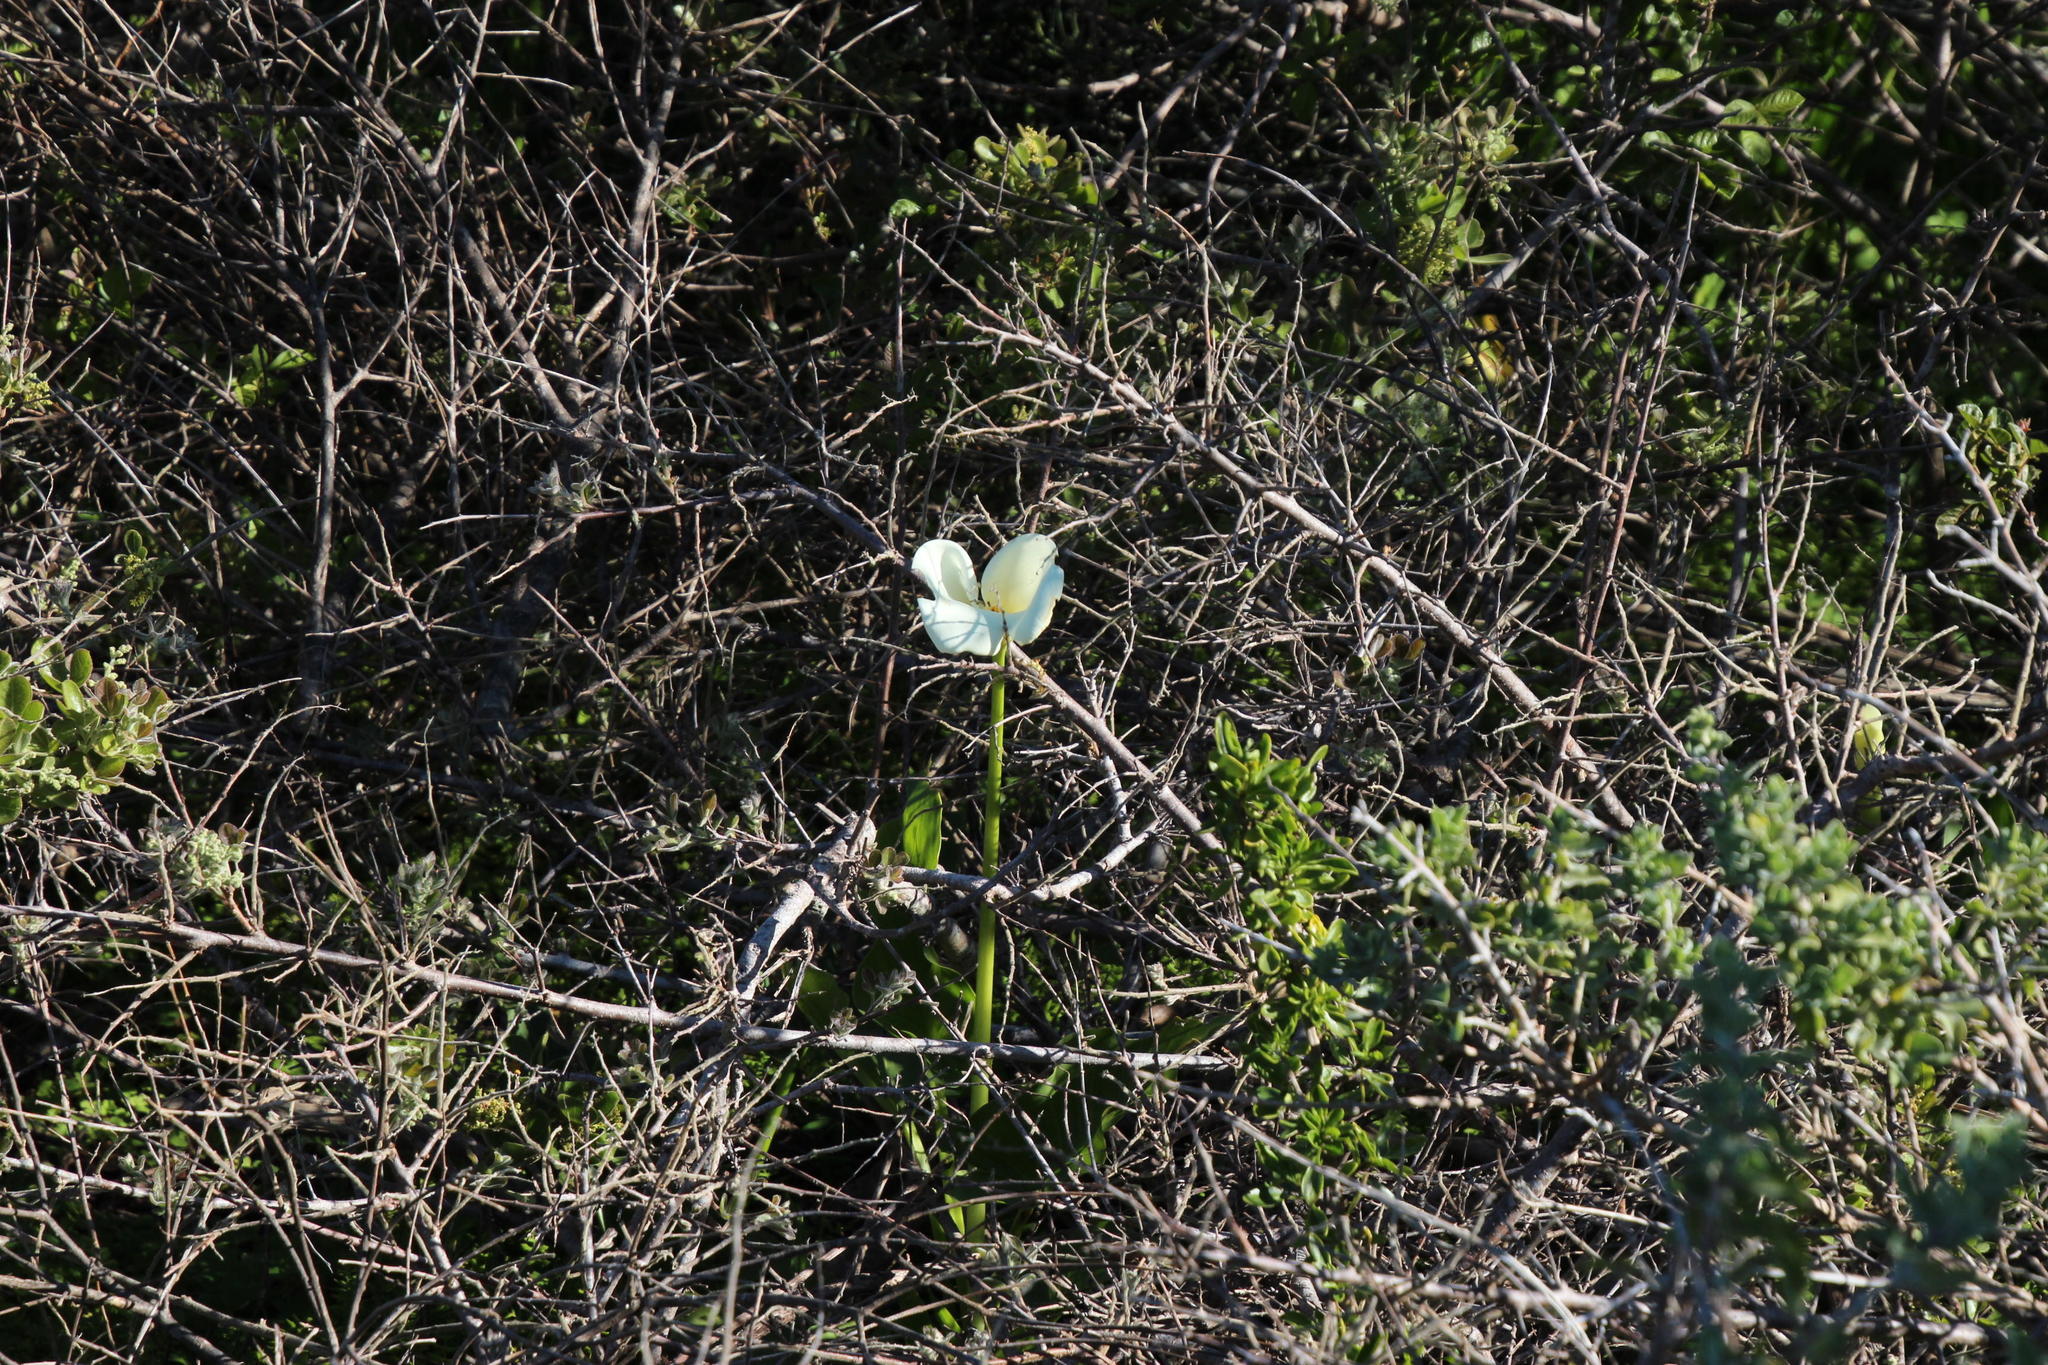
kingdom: Plantae
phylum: Tracheophyta
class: Liliopsida
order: Alismatales
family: Araceae
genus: Zantedeschia
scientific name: Zantedeschia aethiopica
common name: Altar-lily
